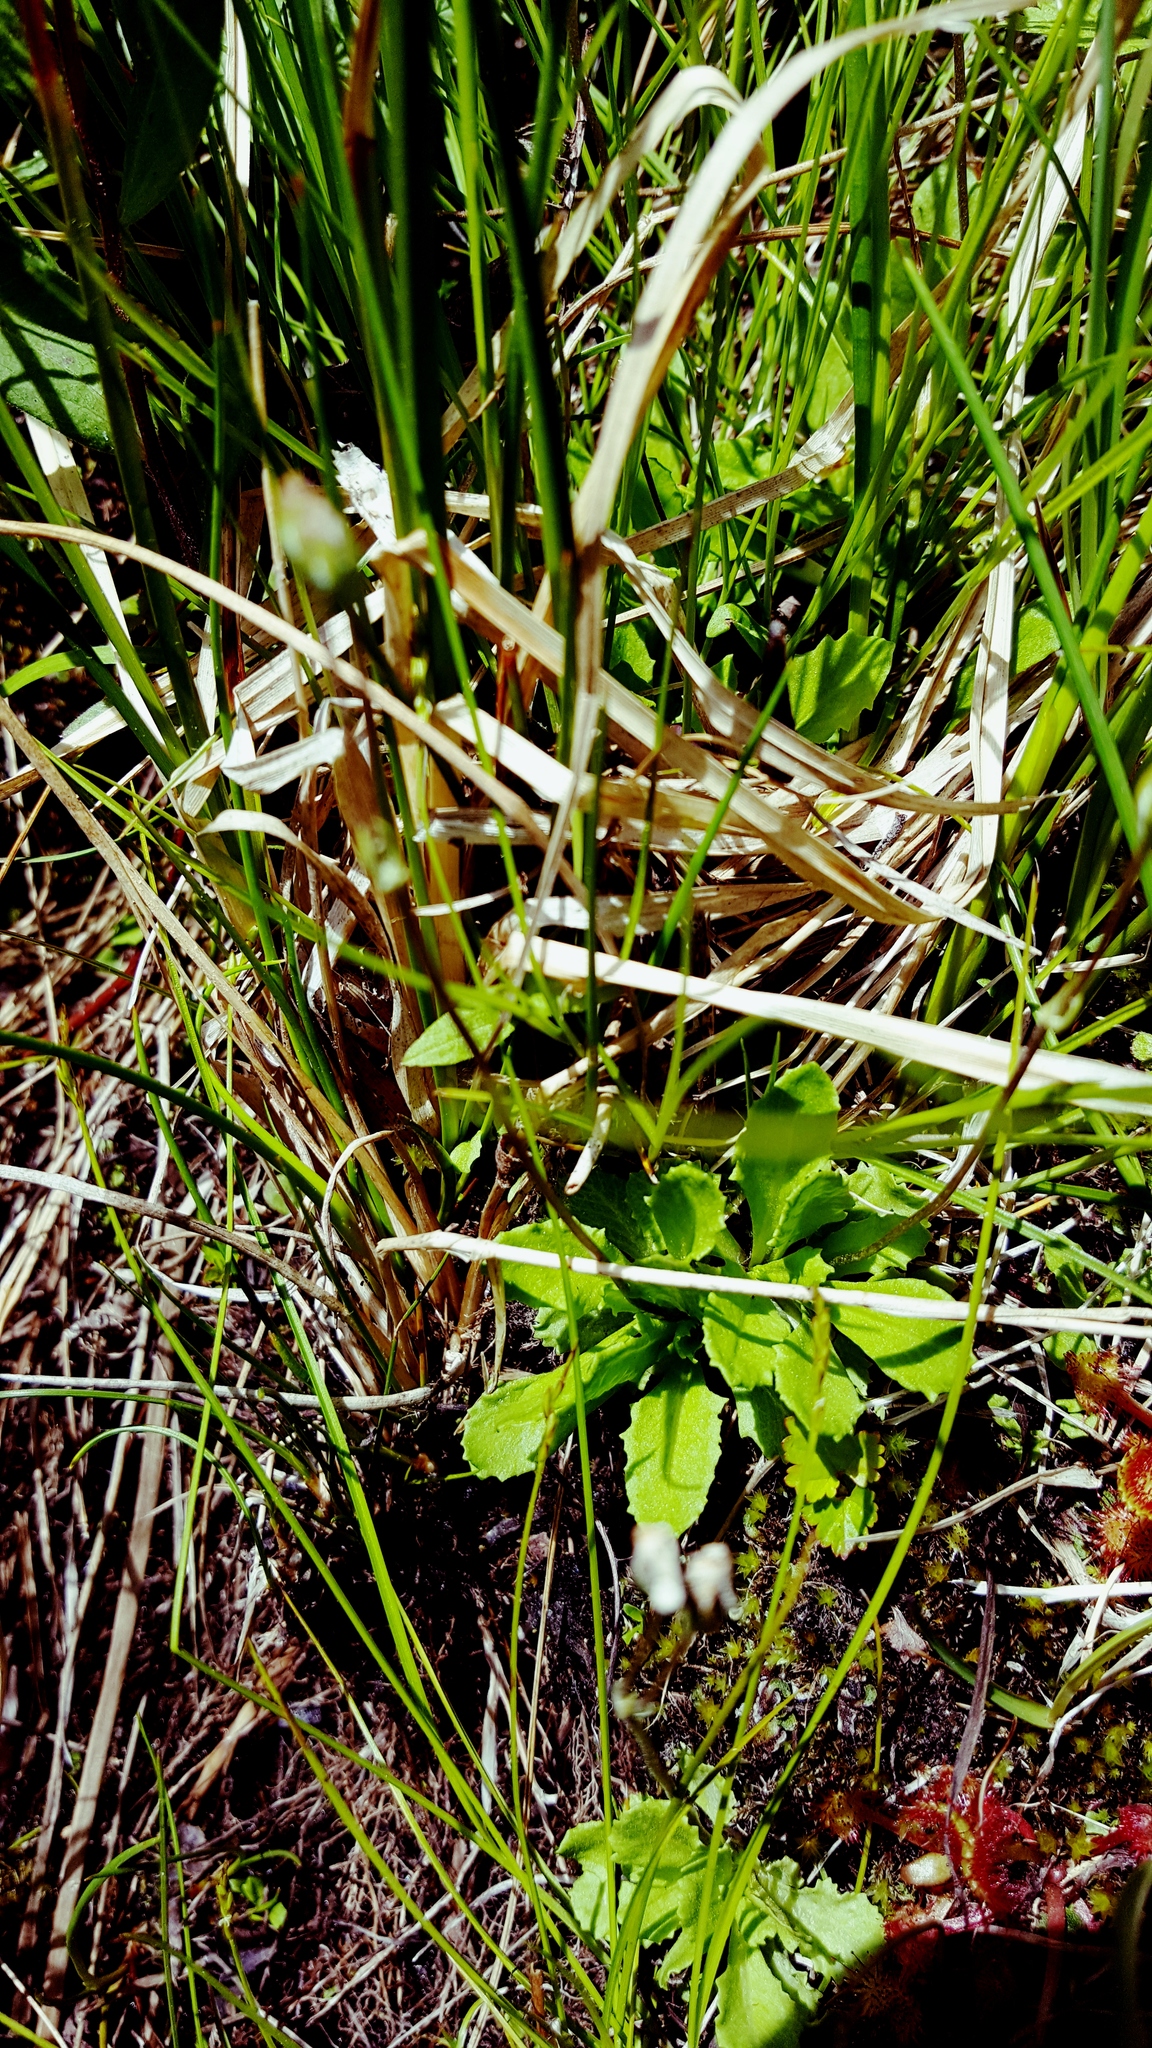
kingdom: Plantae
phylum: Tracheophyta
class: Magnoliopsida
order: Ericales
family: Primulaceae
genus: Primula
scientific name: Primula mistassinica
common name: Bird's-eye primrose
